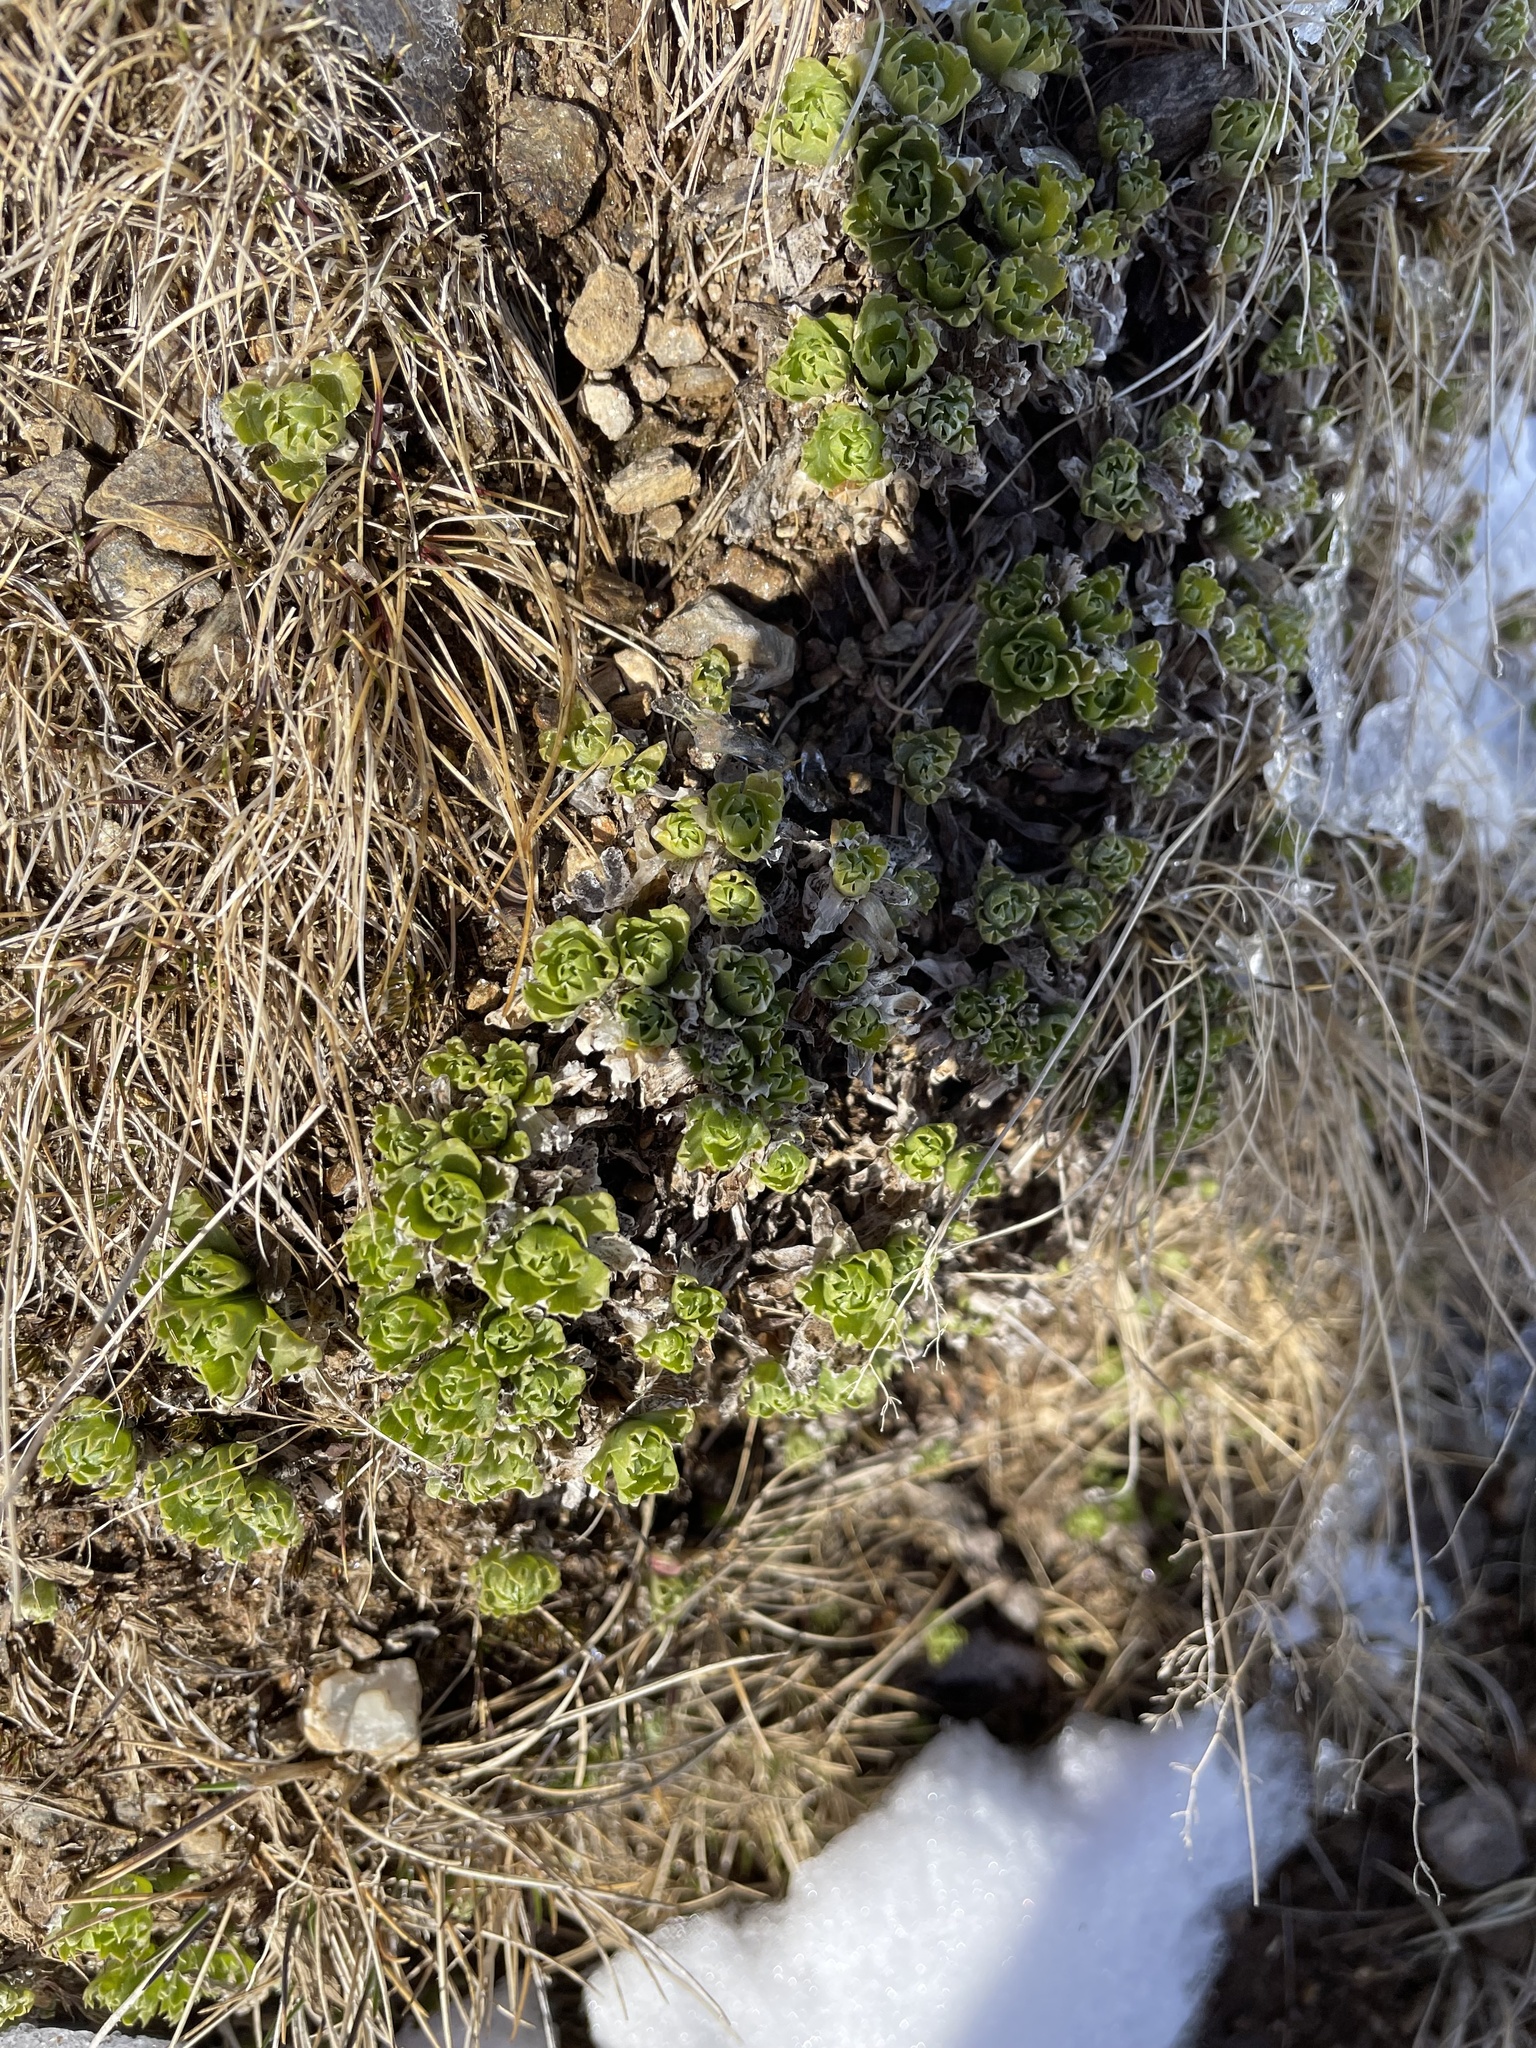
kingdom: Plantae
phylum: Tracheophyta
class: Magnoliopsida
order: Ericales
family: Primulaceae
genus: Primula
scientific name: Primula minima
